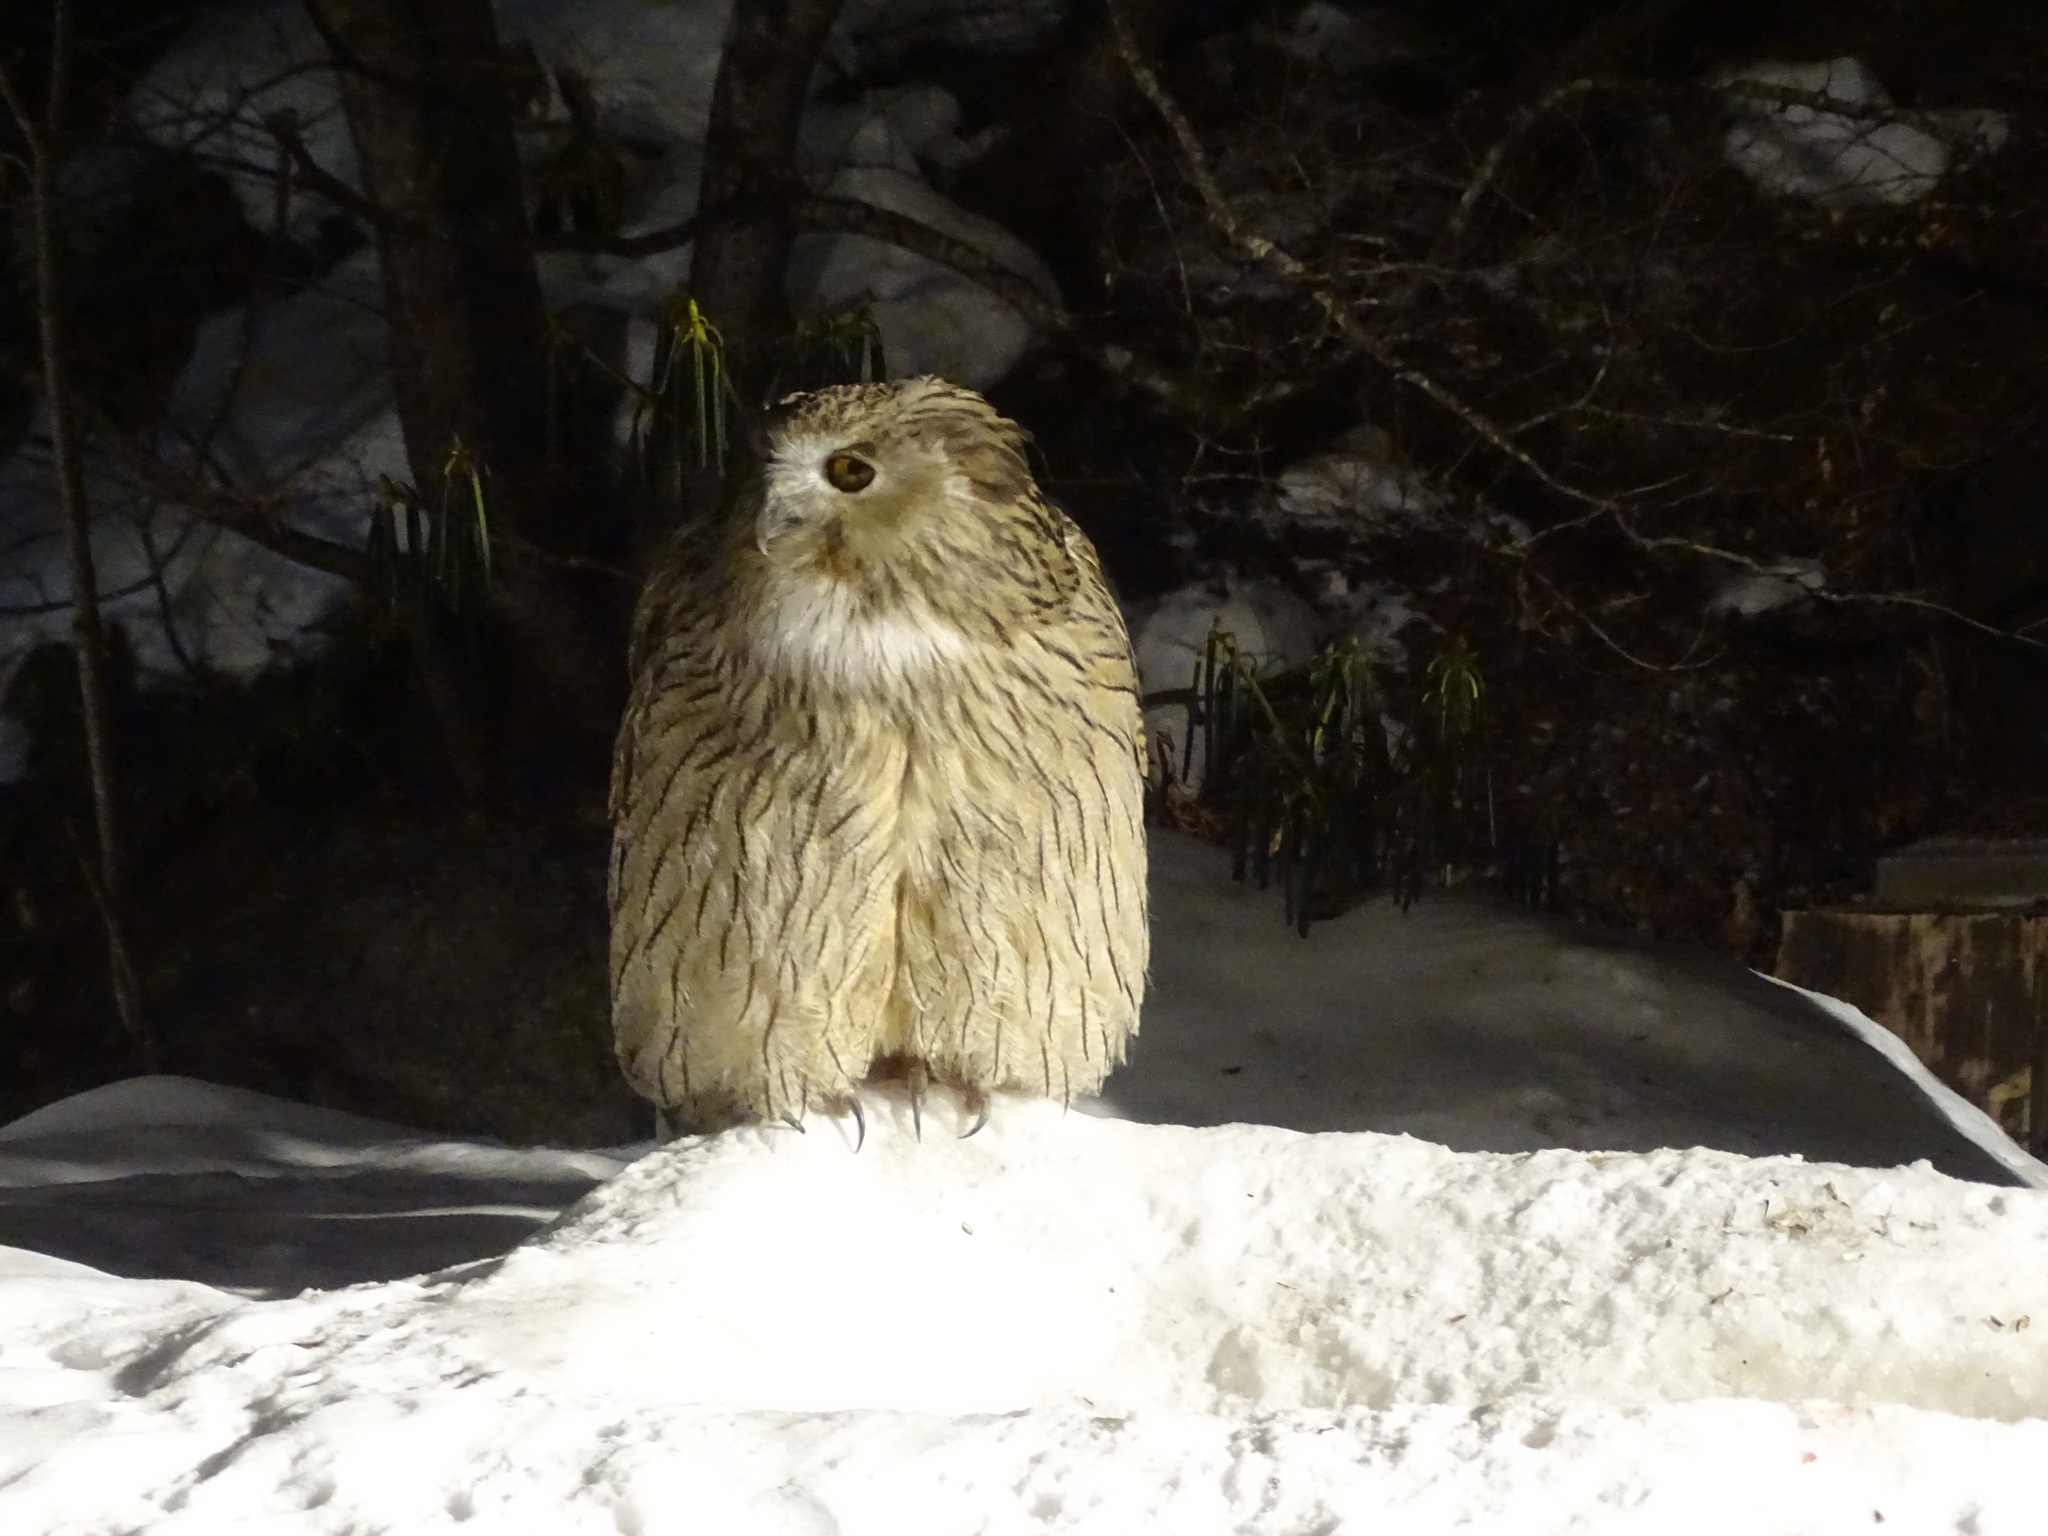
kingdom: Animalia
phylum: Chordata
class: Aves
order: Strigiformes
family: Strigidae
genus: Bubo
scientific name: Bubo blakistoni
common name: Blakiston's fish owl
